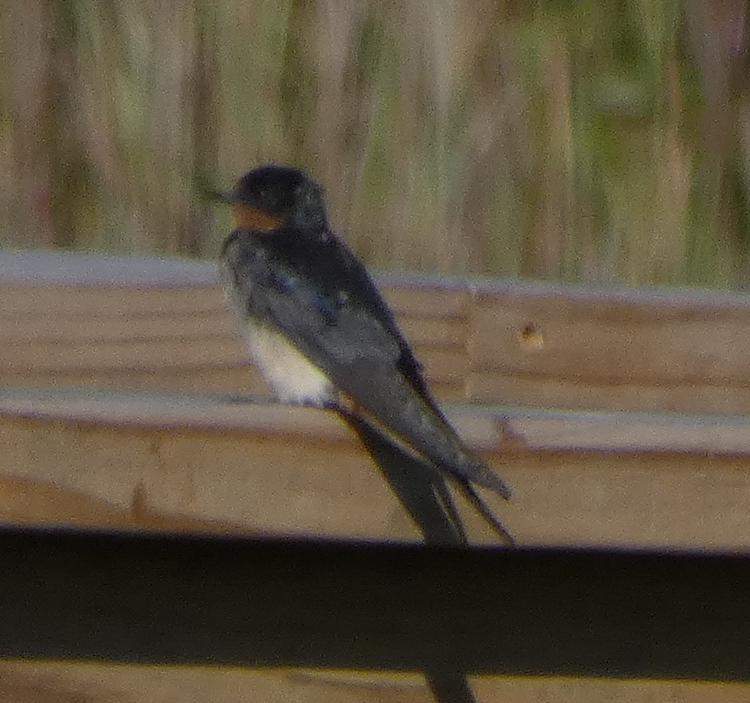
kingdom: Animalia
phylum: Chordata
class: Aves
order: Passeriformes
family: Hirundinidae
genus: Hirundo
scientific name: Hirundo rustica
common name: Barn swallow
